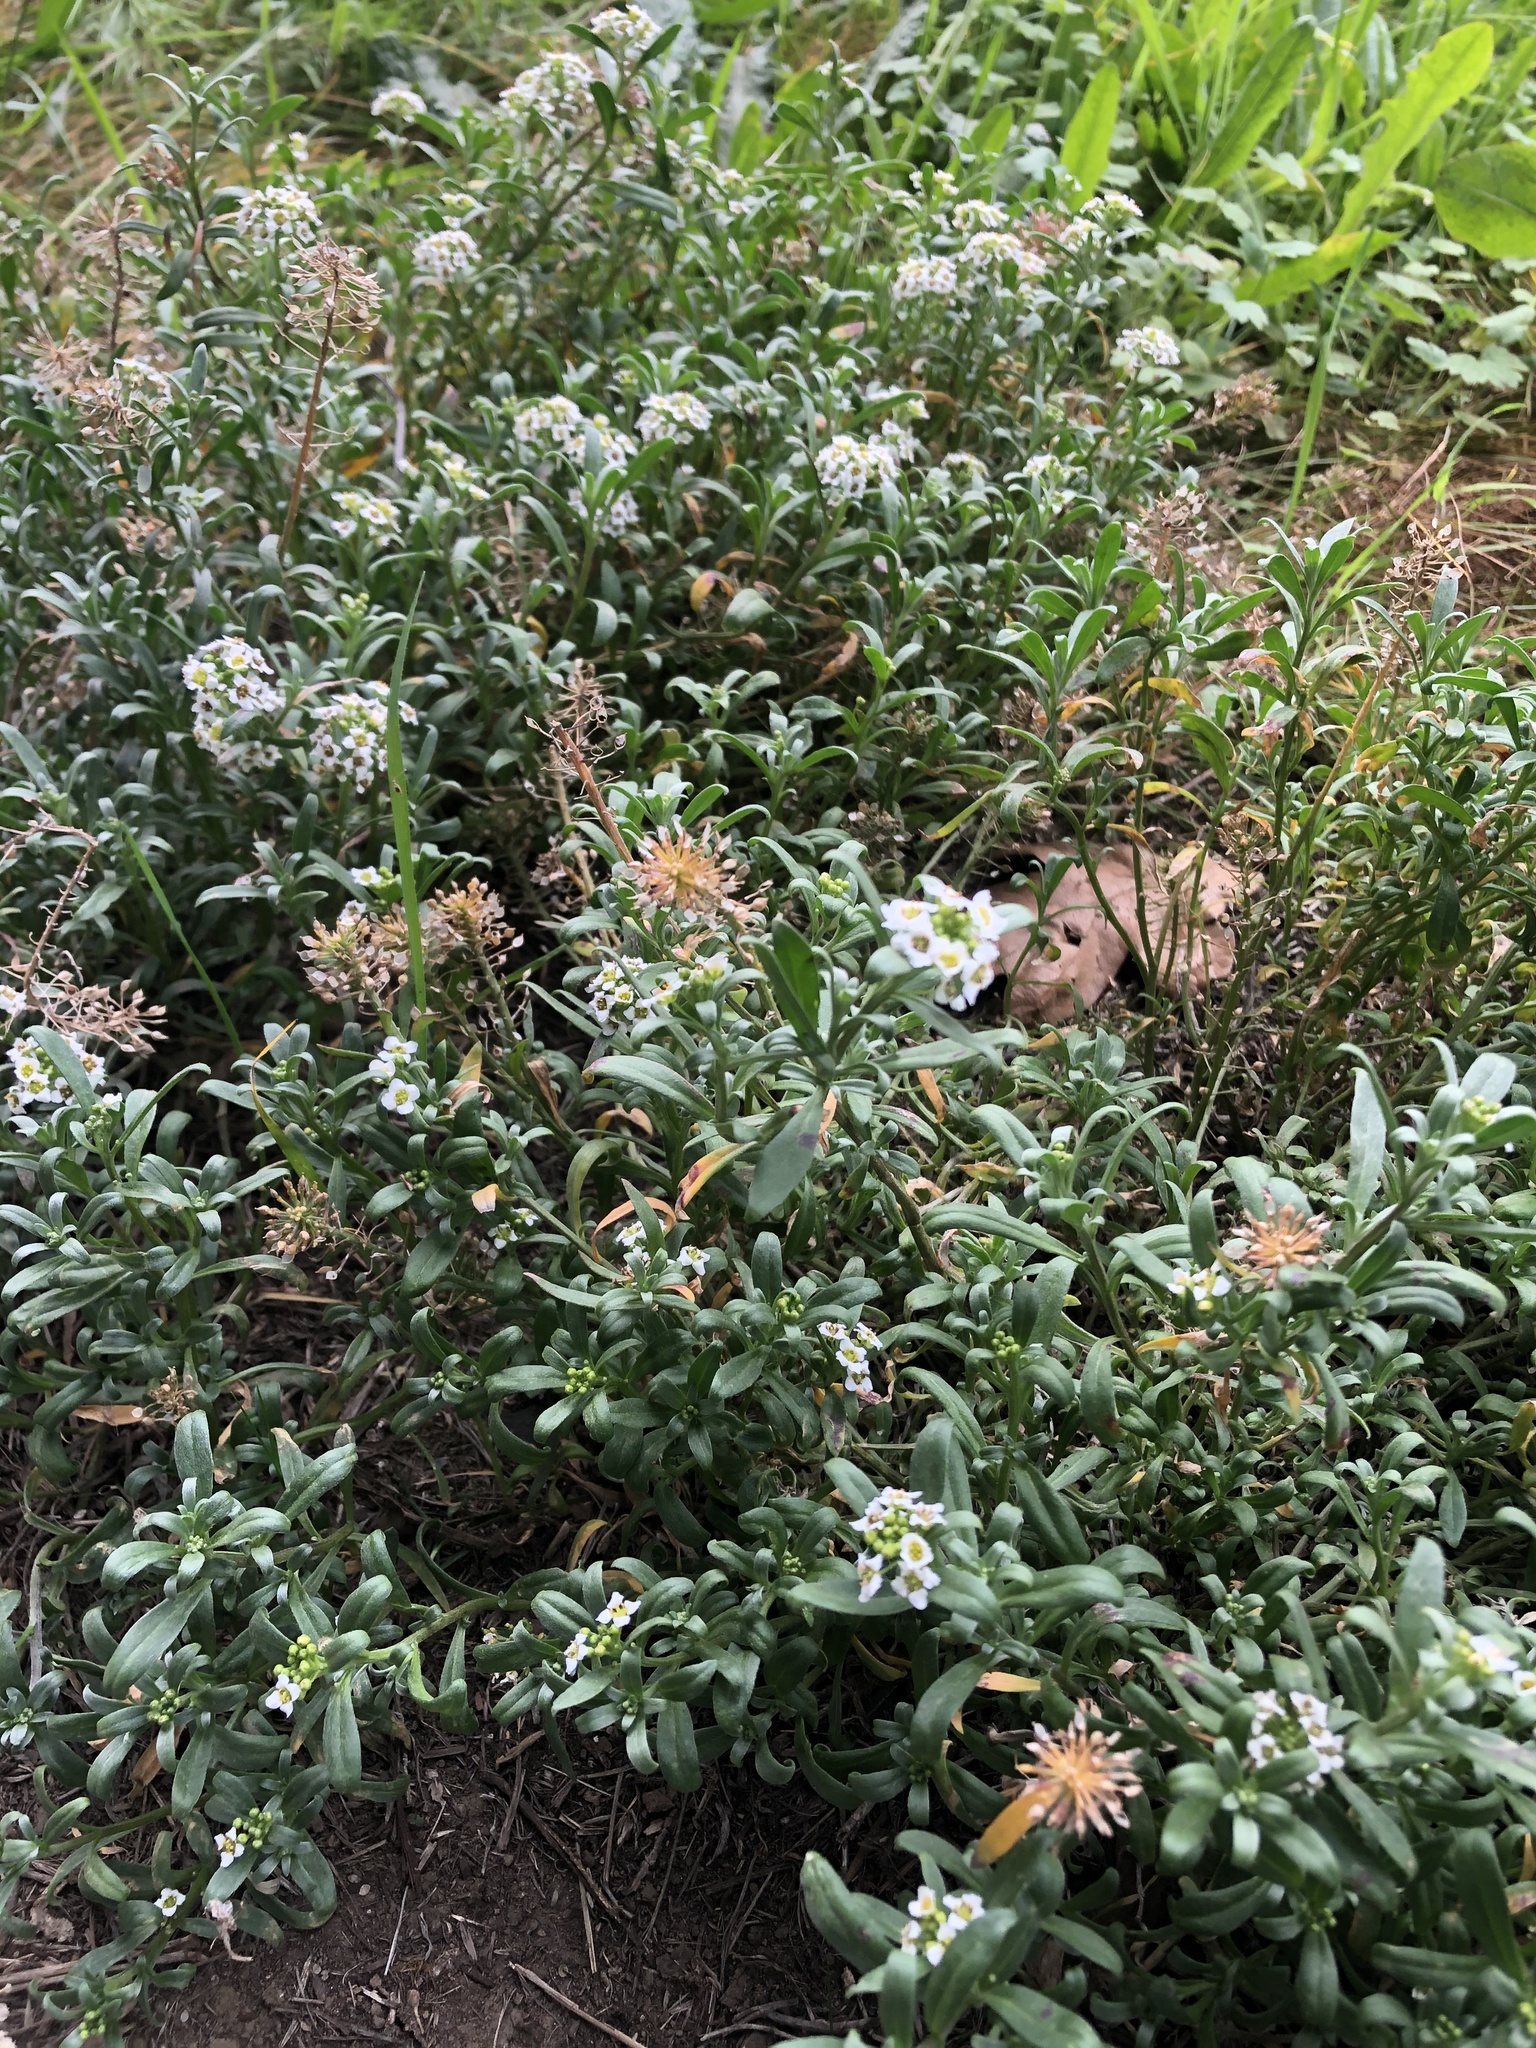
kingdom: Plantae
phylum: Tracheophyta
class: Magnoliopsida
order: Brassicales
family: Brassicaceae
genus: Lobularia
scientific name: Lobularia maritima
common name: Sweet alison
